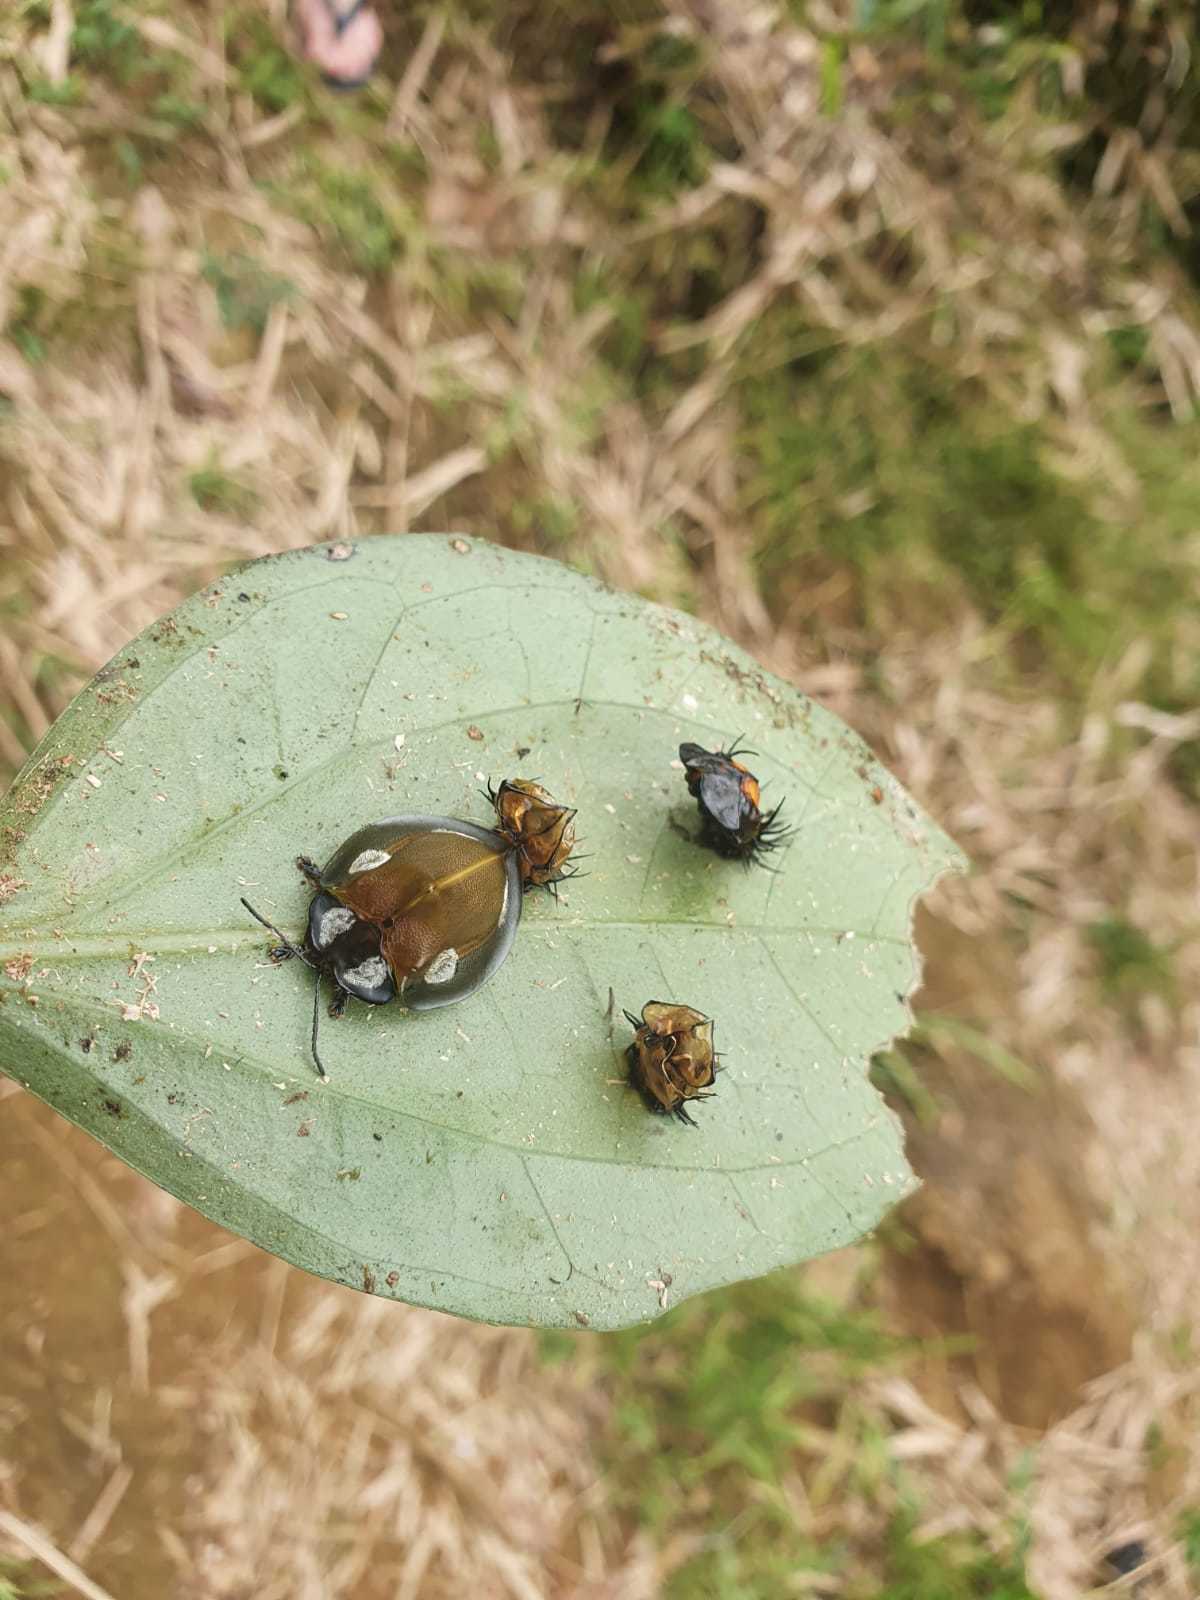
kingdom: Animalia
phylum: Arthropoda
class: Insecta
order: Coleoptera
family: Chrysomelidae
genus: Mesomphalia
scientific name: Mesomphalia turrita
